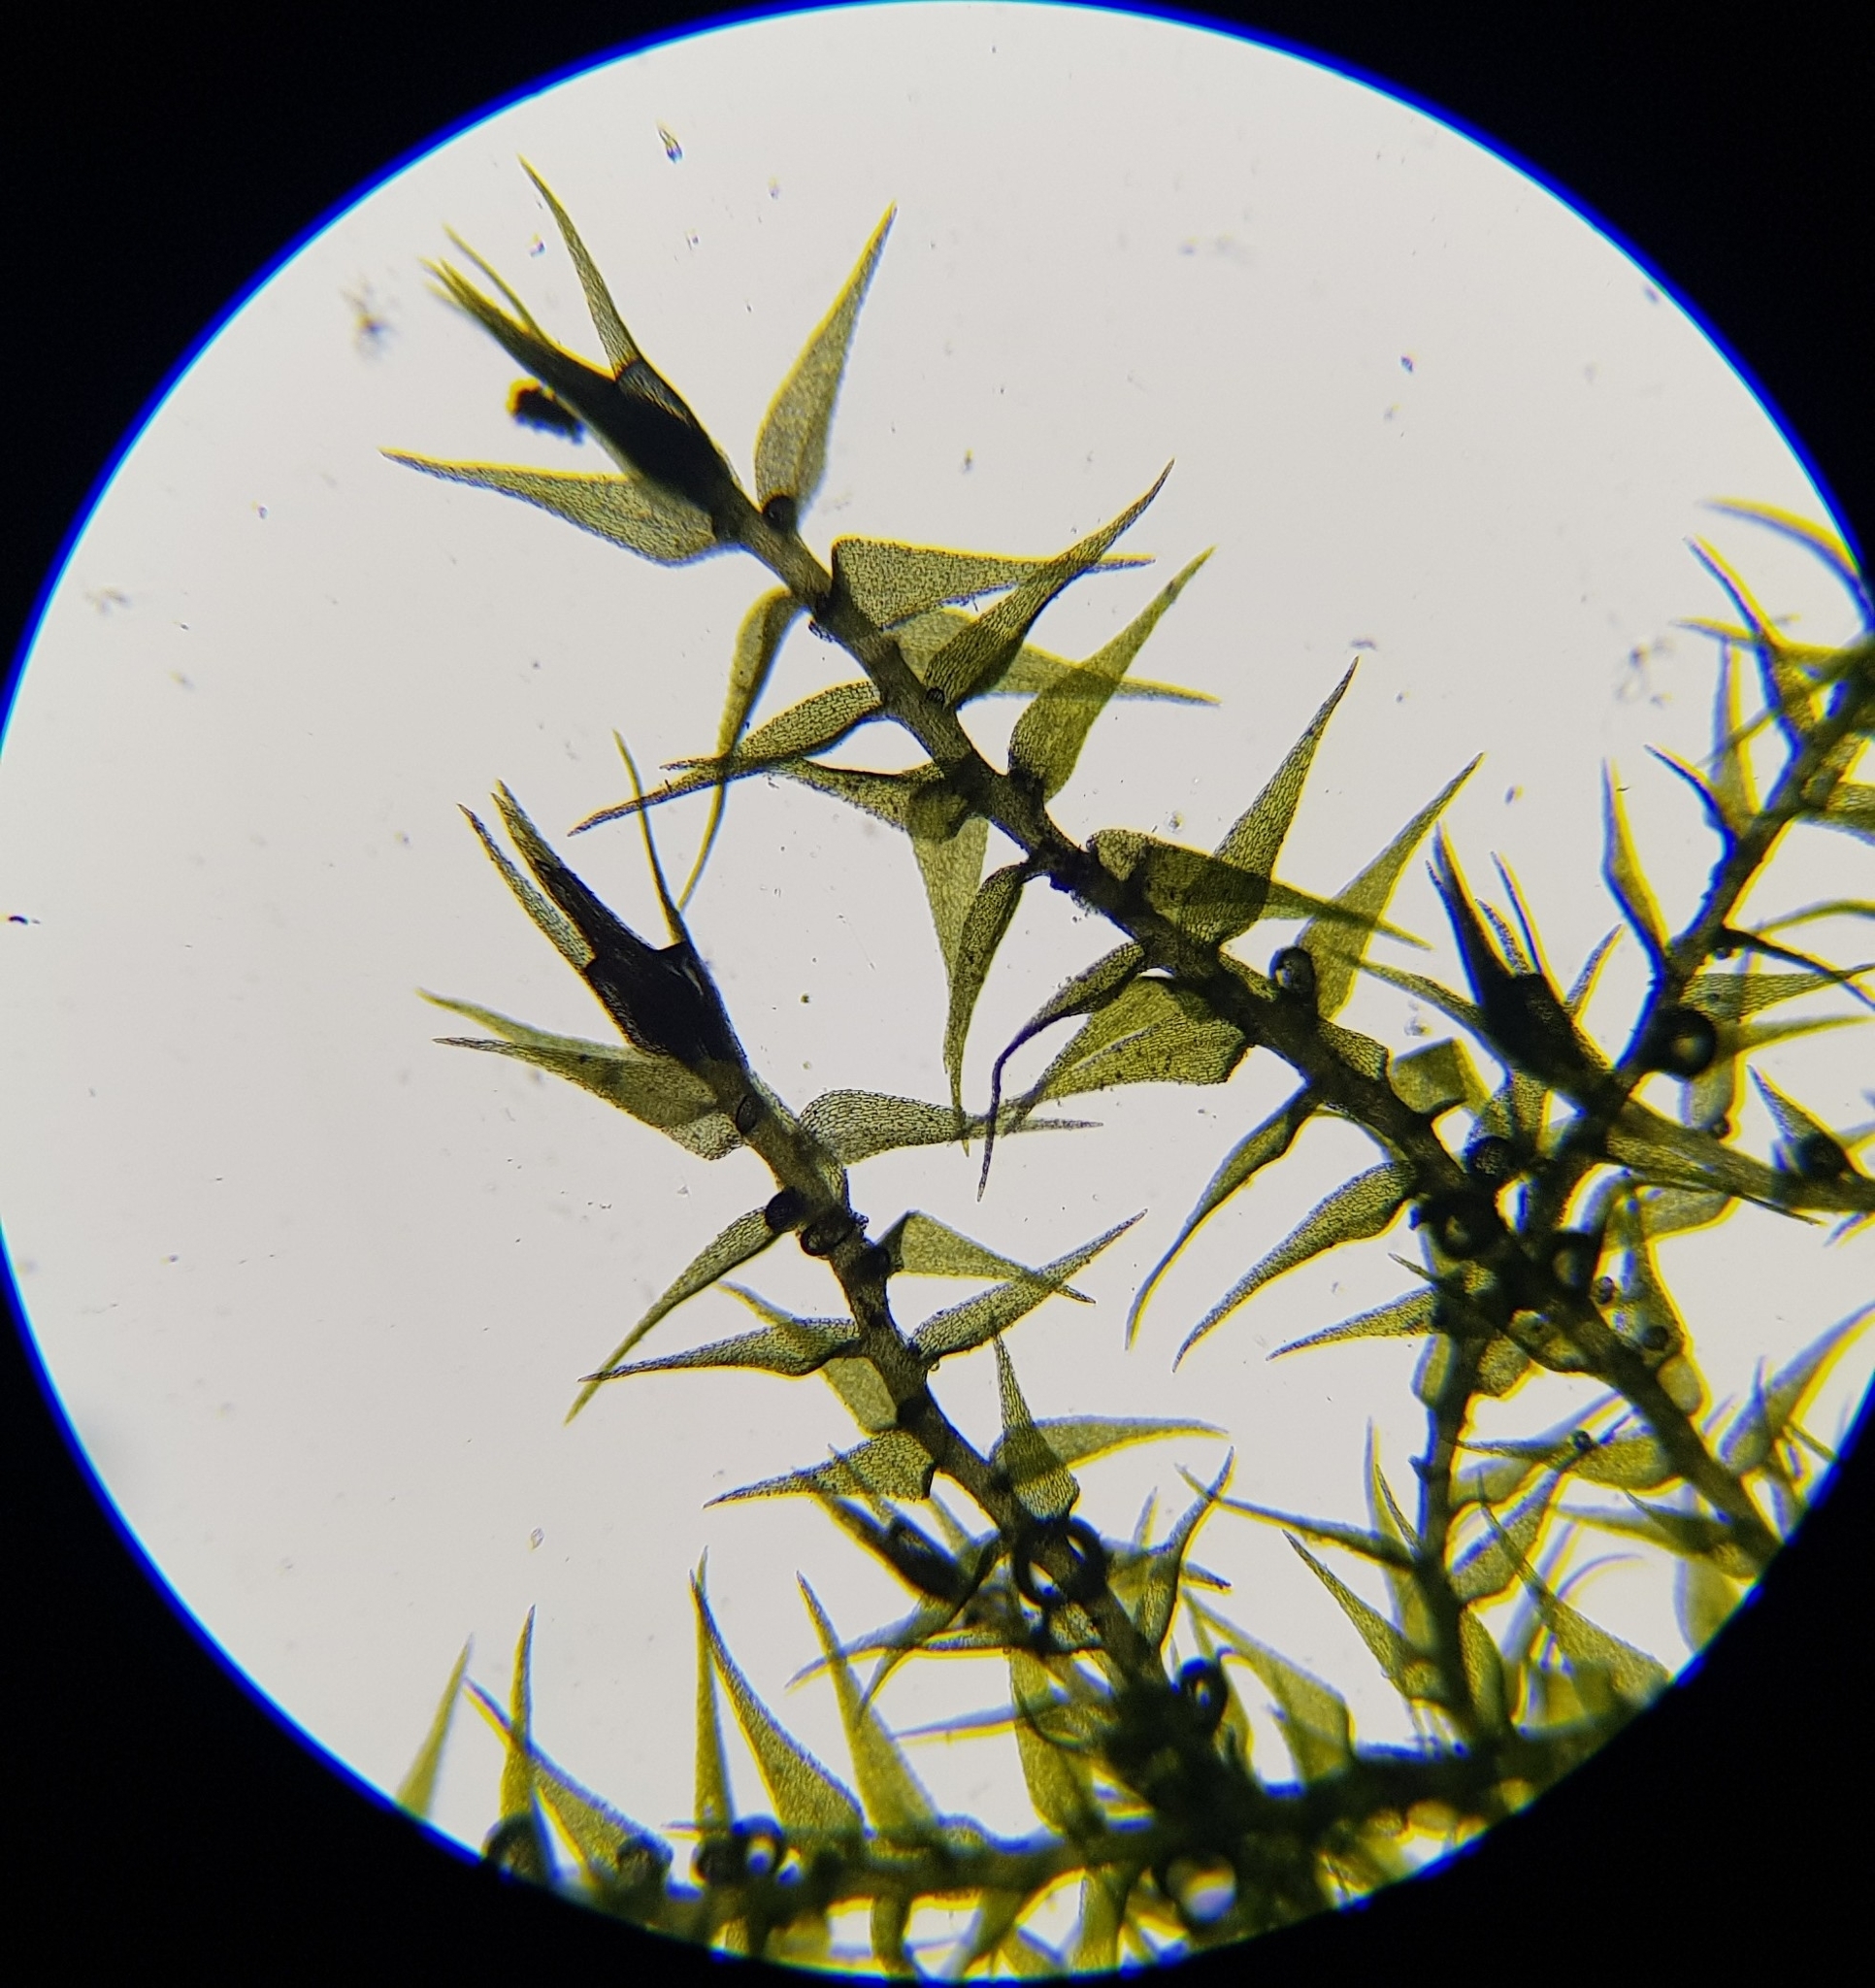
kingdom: Plantae
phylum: Bryophyta
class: Bryopsida
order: Hypnales
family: Amblystegiaceae
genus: Amblystegium
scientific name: Amblystegium serpens
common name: Jurkatzka's feather moss
